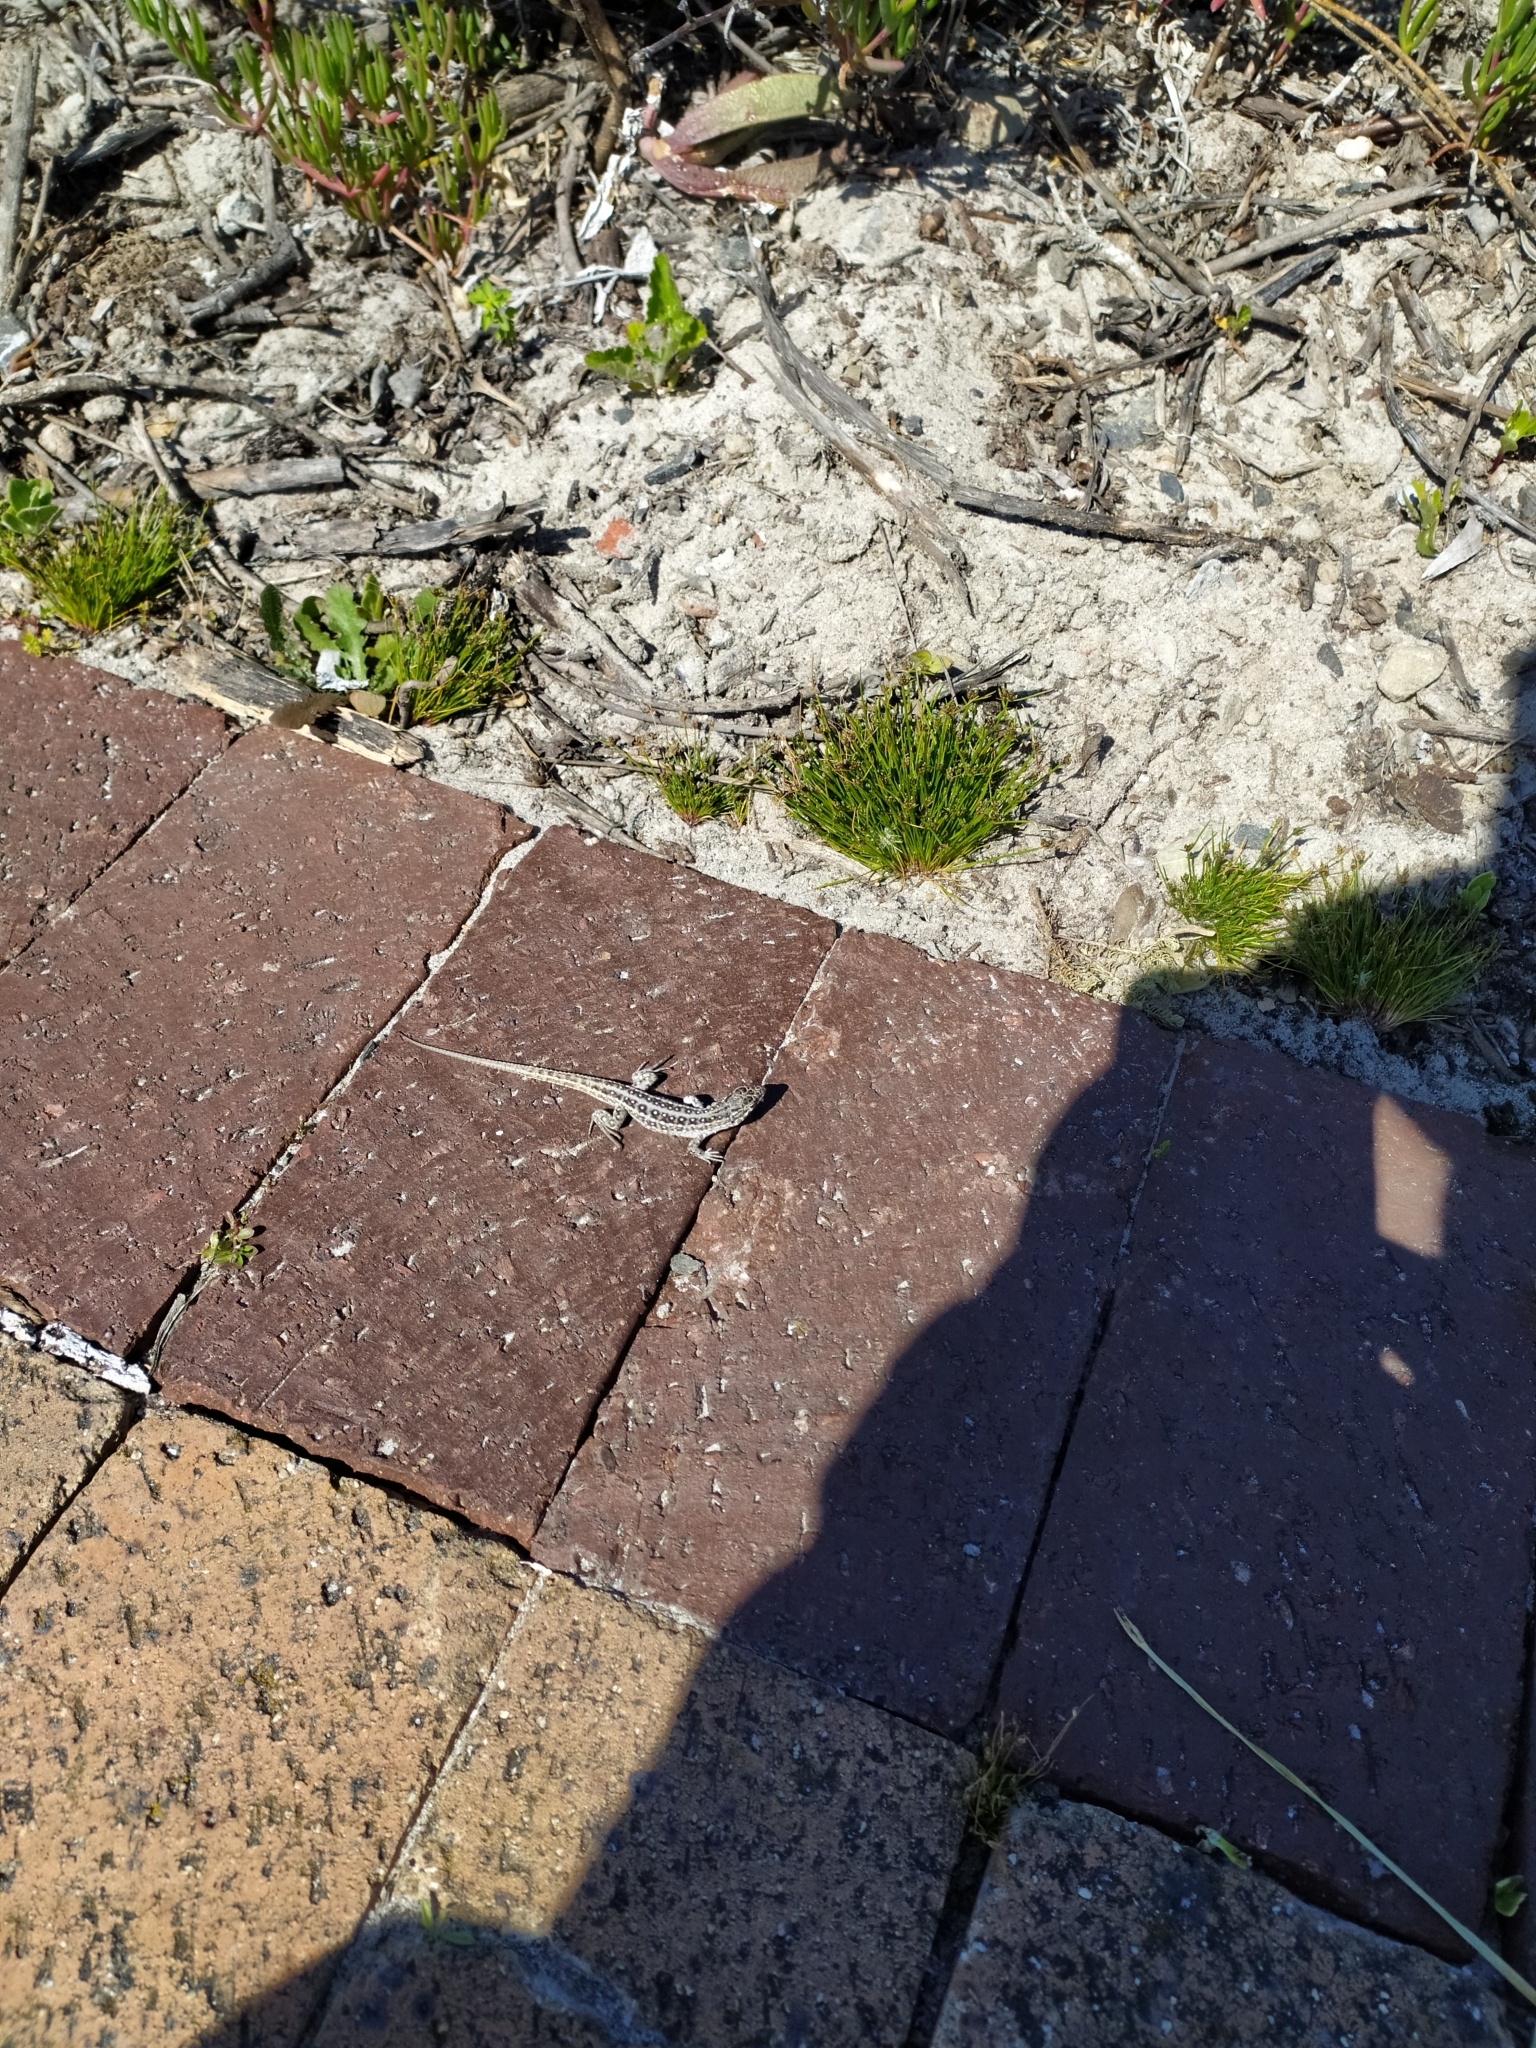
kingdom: Animalia
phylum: Chordata
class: Squamata
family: Lacertidae
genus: Meroles
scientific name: Meroles knoxii
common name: Knox's desert lizard
